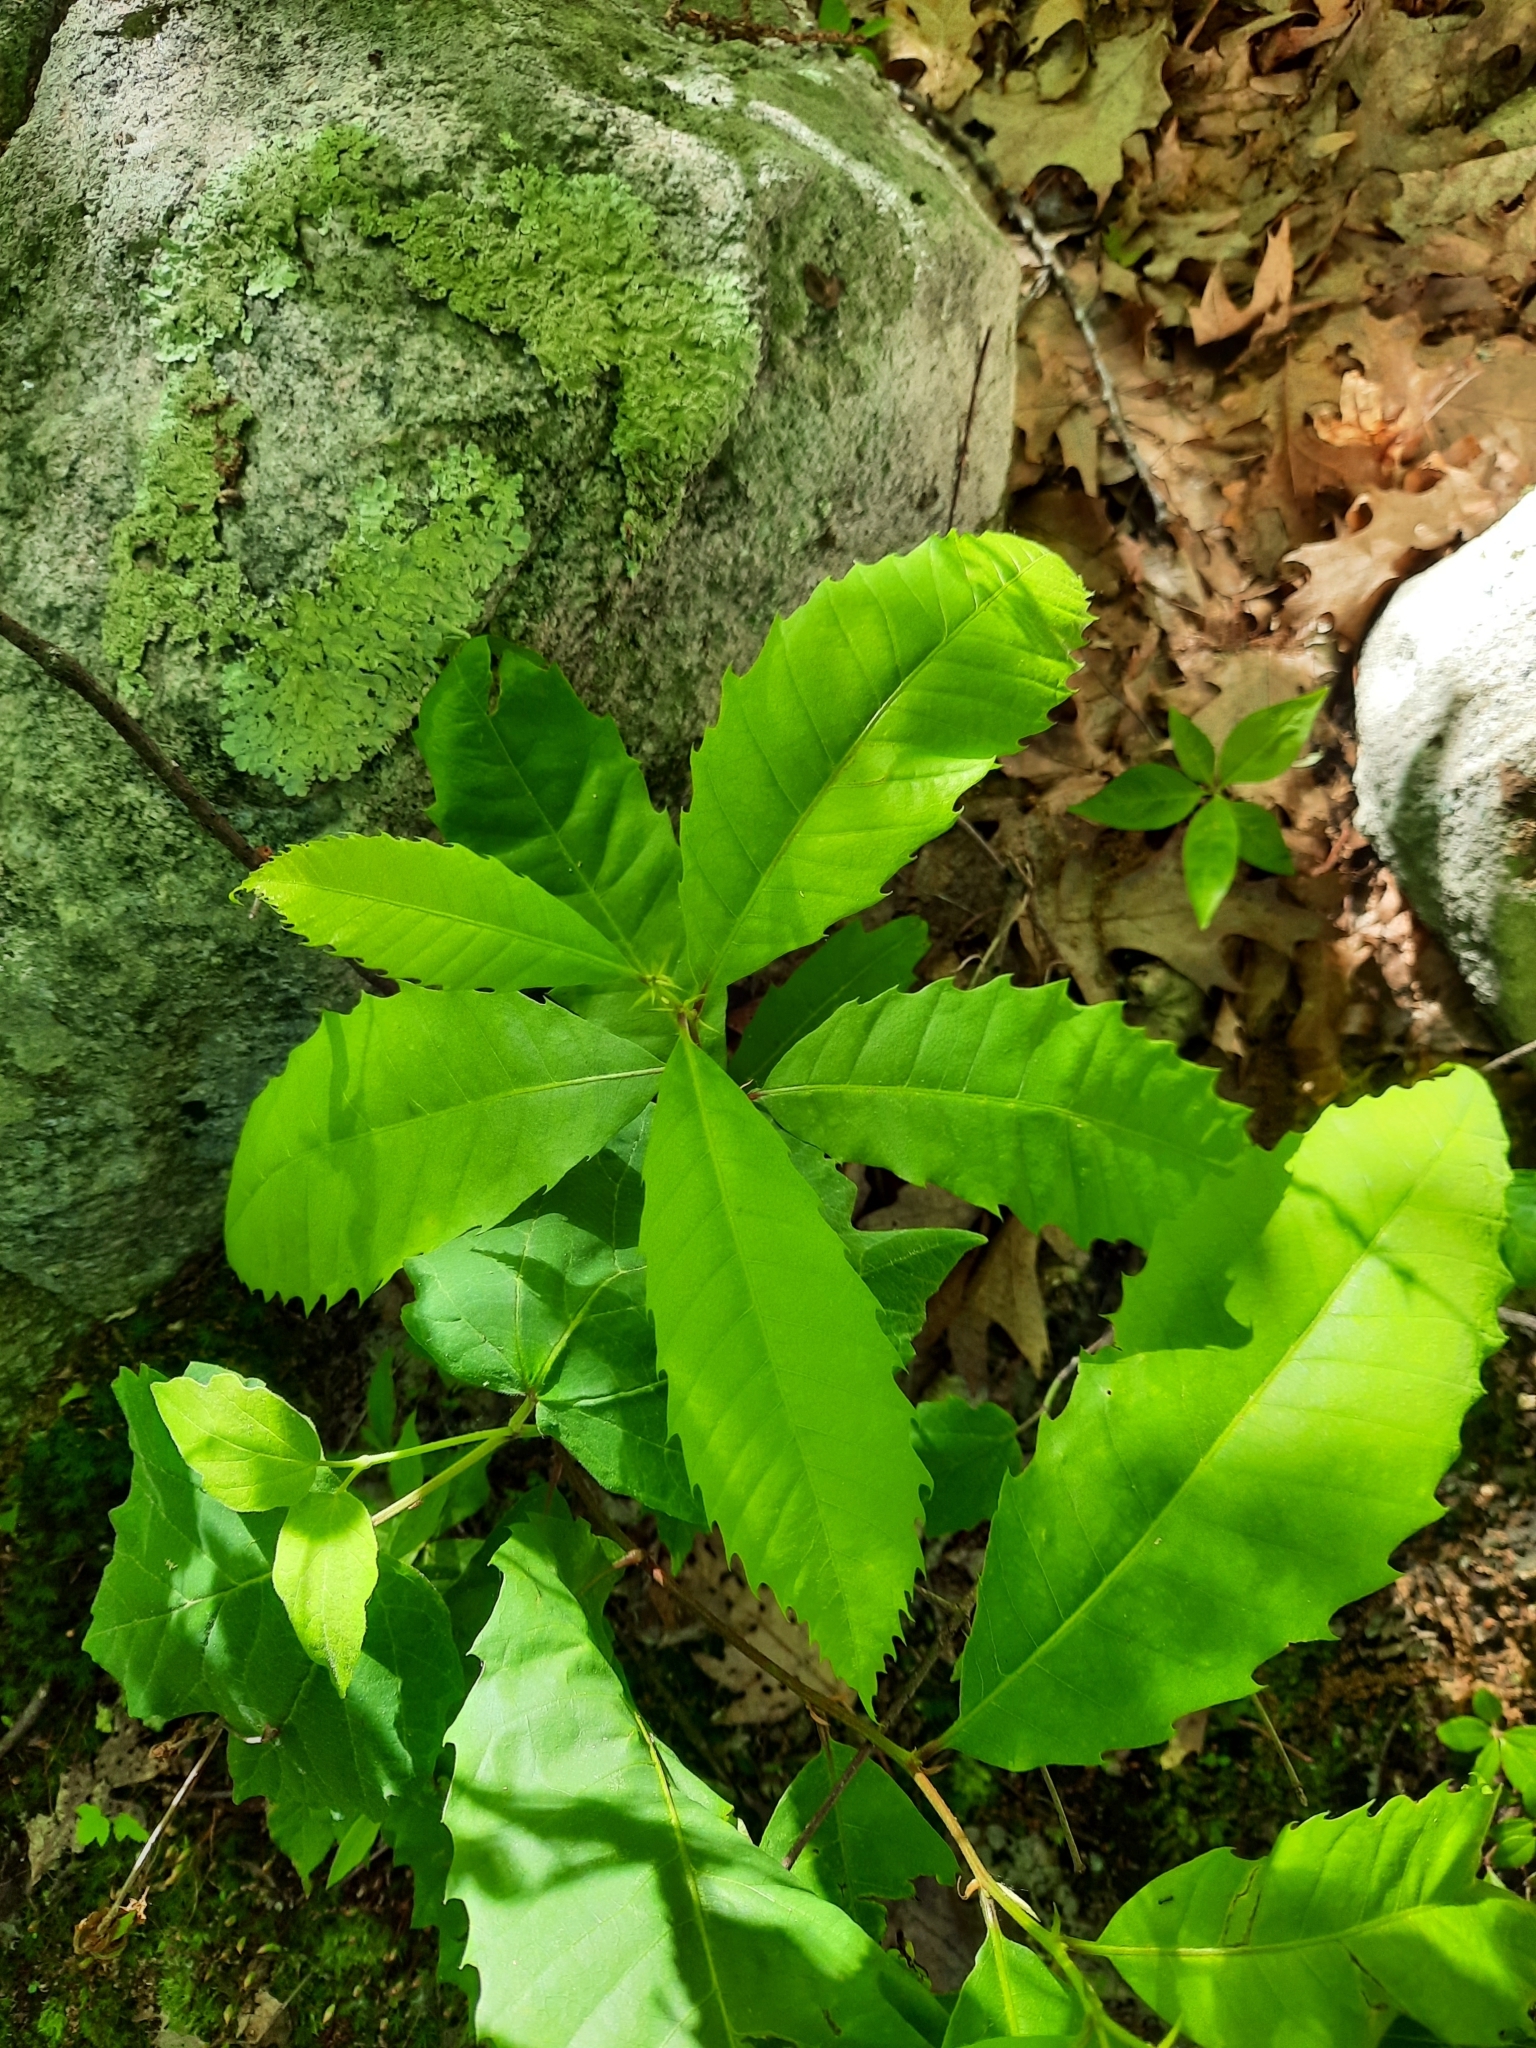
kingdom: Plantae
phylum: Tracheophyta
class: Magnoliopsida
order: Fagales
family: Fagaceae
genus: Castanea
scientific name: Castanea dentata
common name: American chestnut
